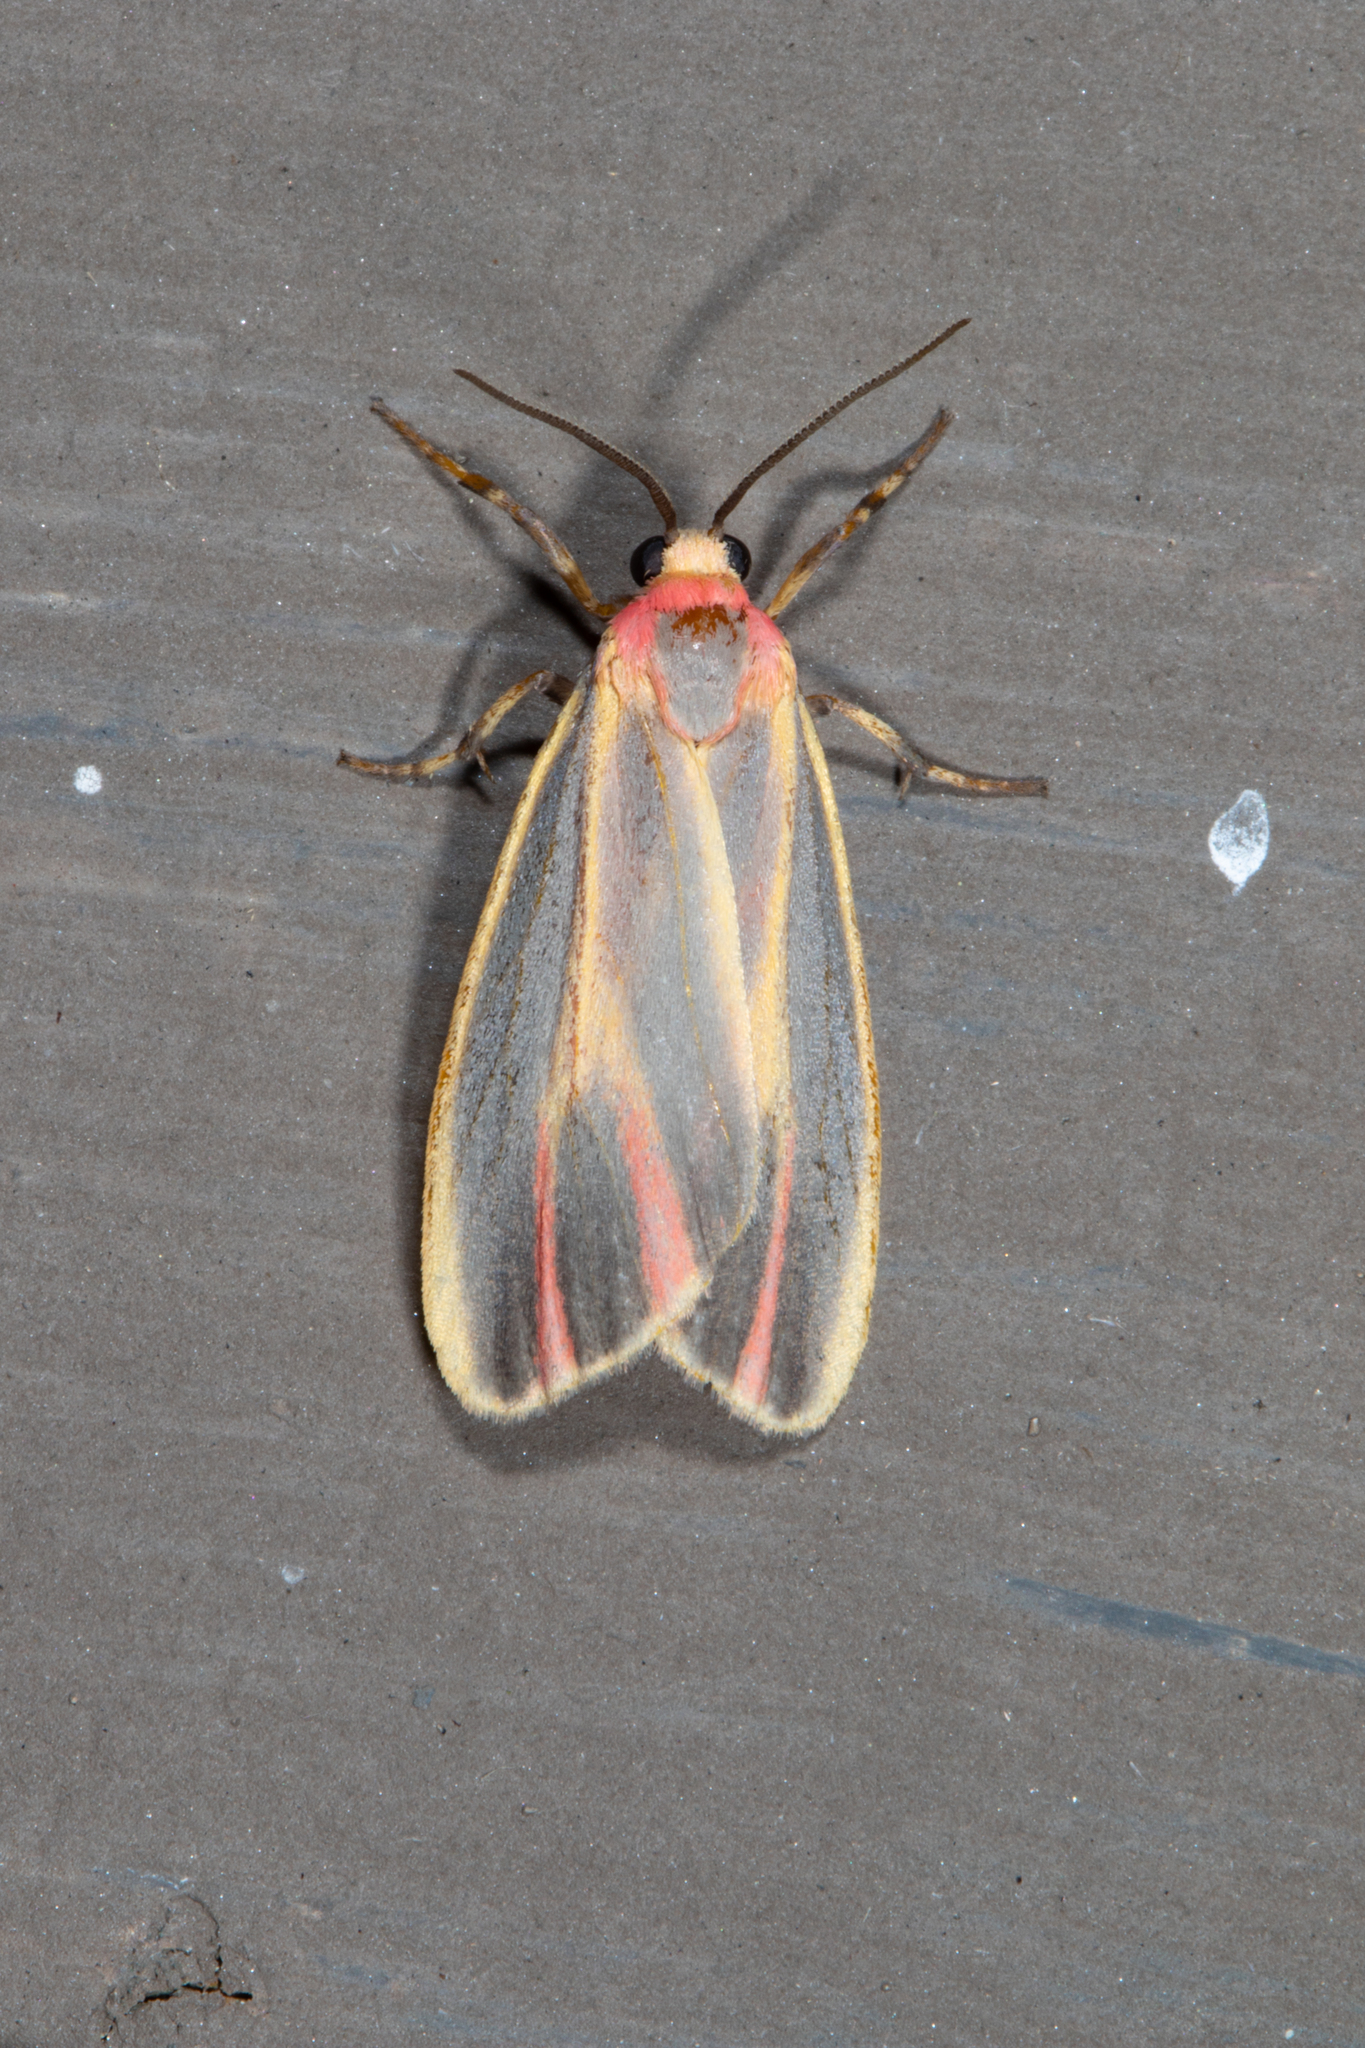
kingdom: Animalia
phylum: Arthropoda
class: Insecta
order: Lepidoptera
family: Erebidae
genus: Hypoprepia
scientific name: Hypoprepia fucosa
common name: Painted lichen moth
